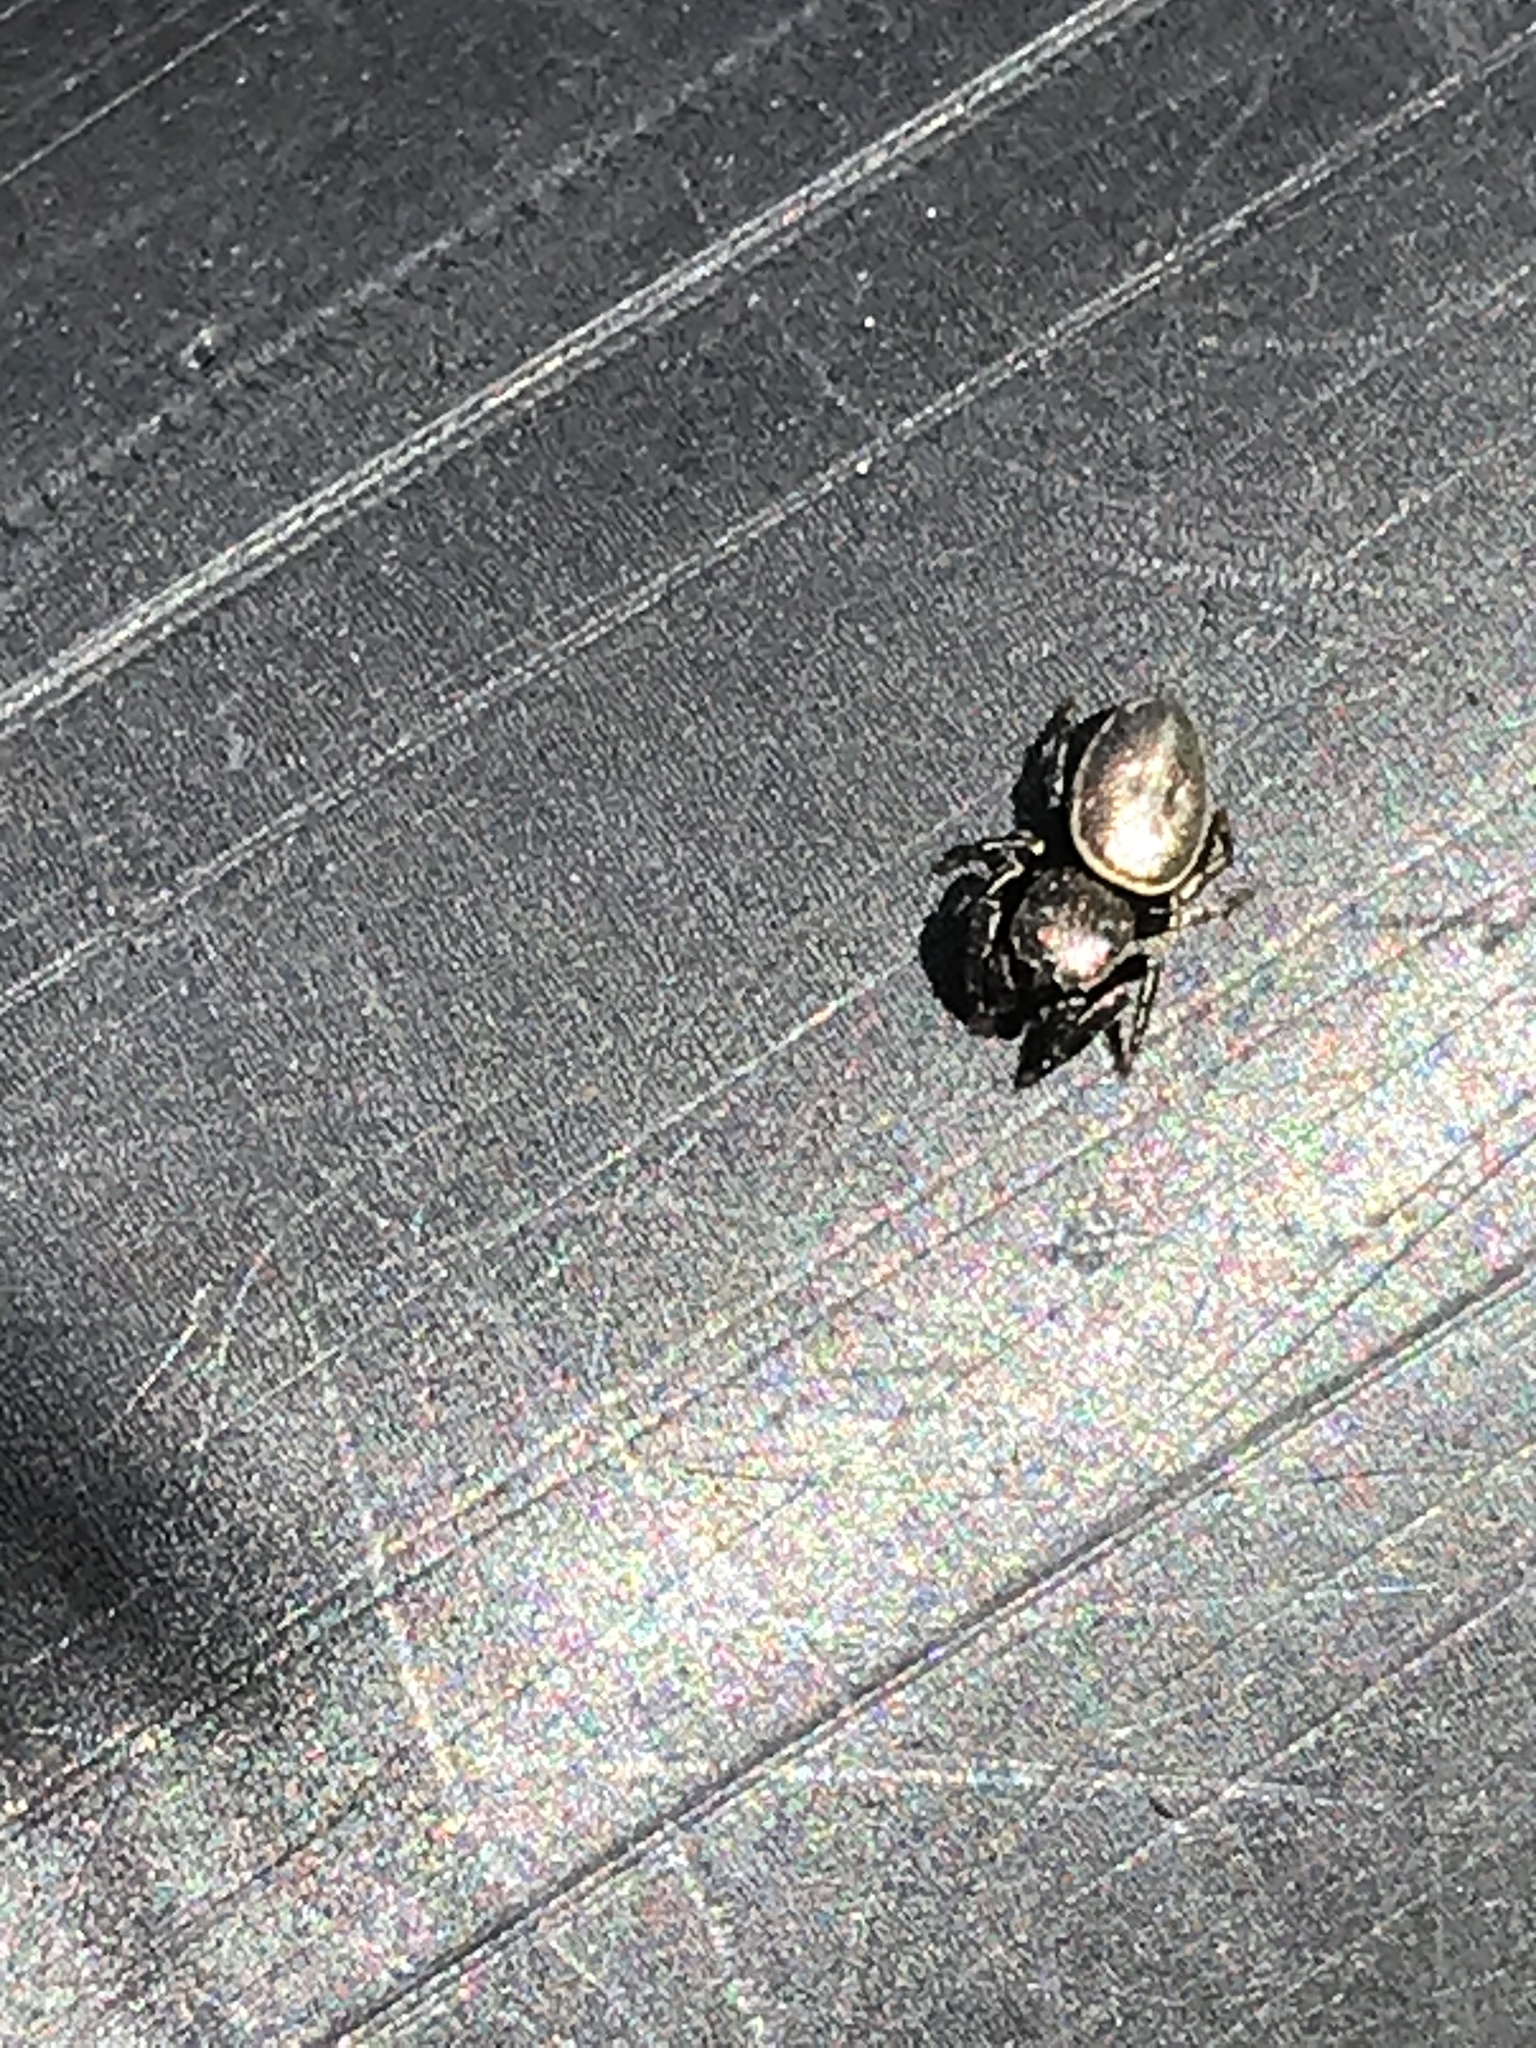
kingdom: Animalia
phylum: Arthropoda
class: Arachnida
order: Araneae
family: Salticidae
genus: Sassacus
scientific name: Sassacus papenhoei
